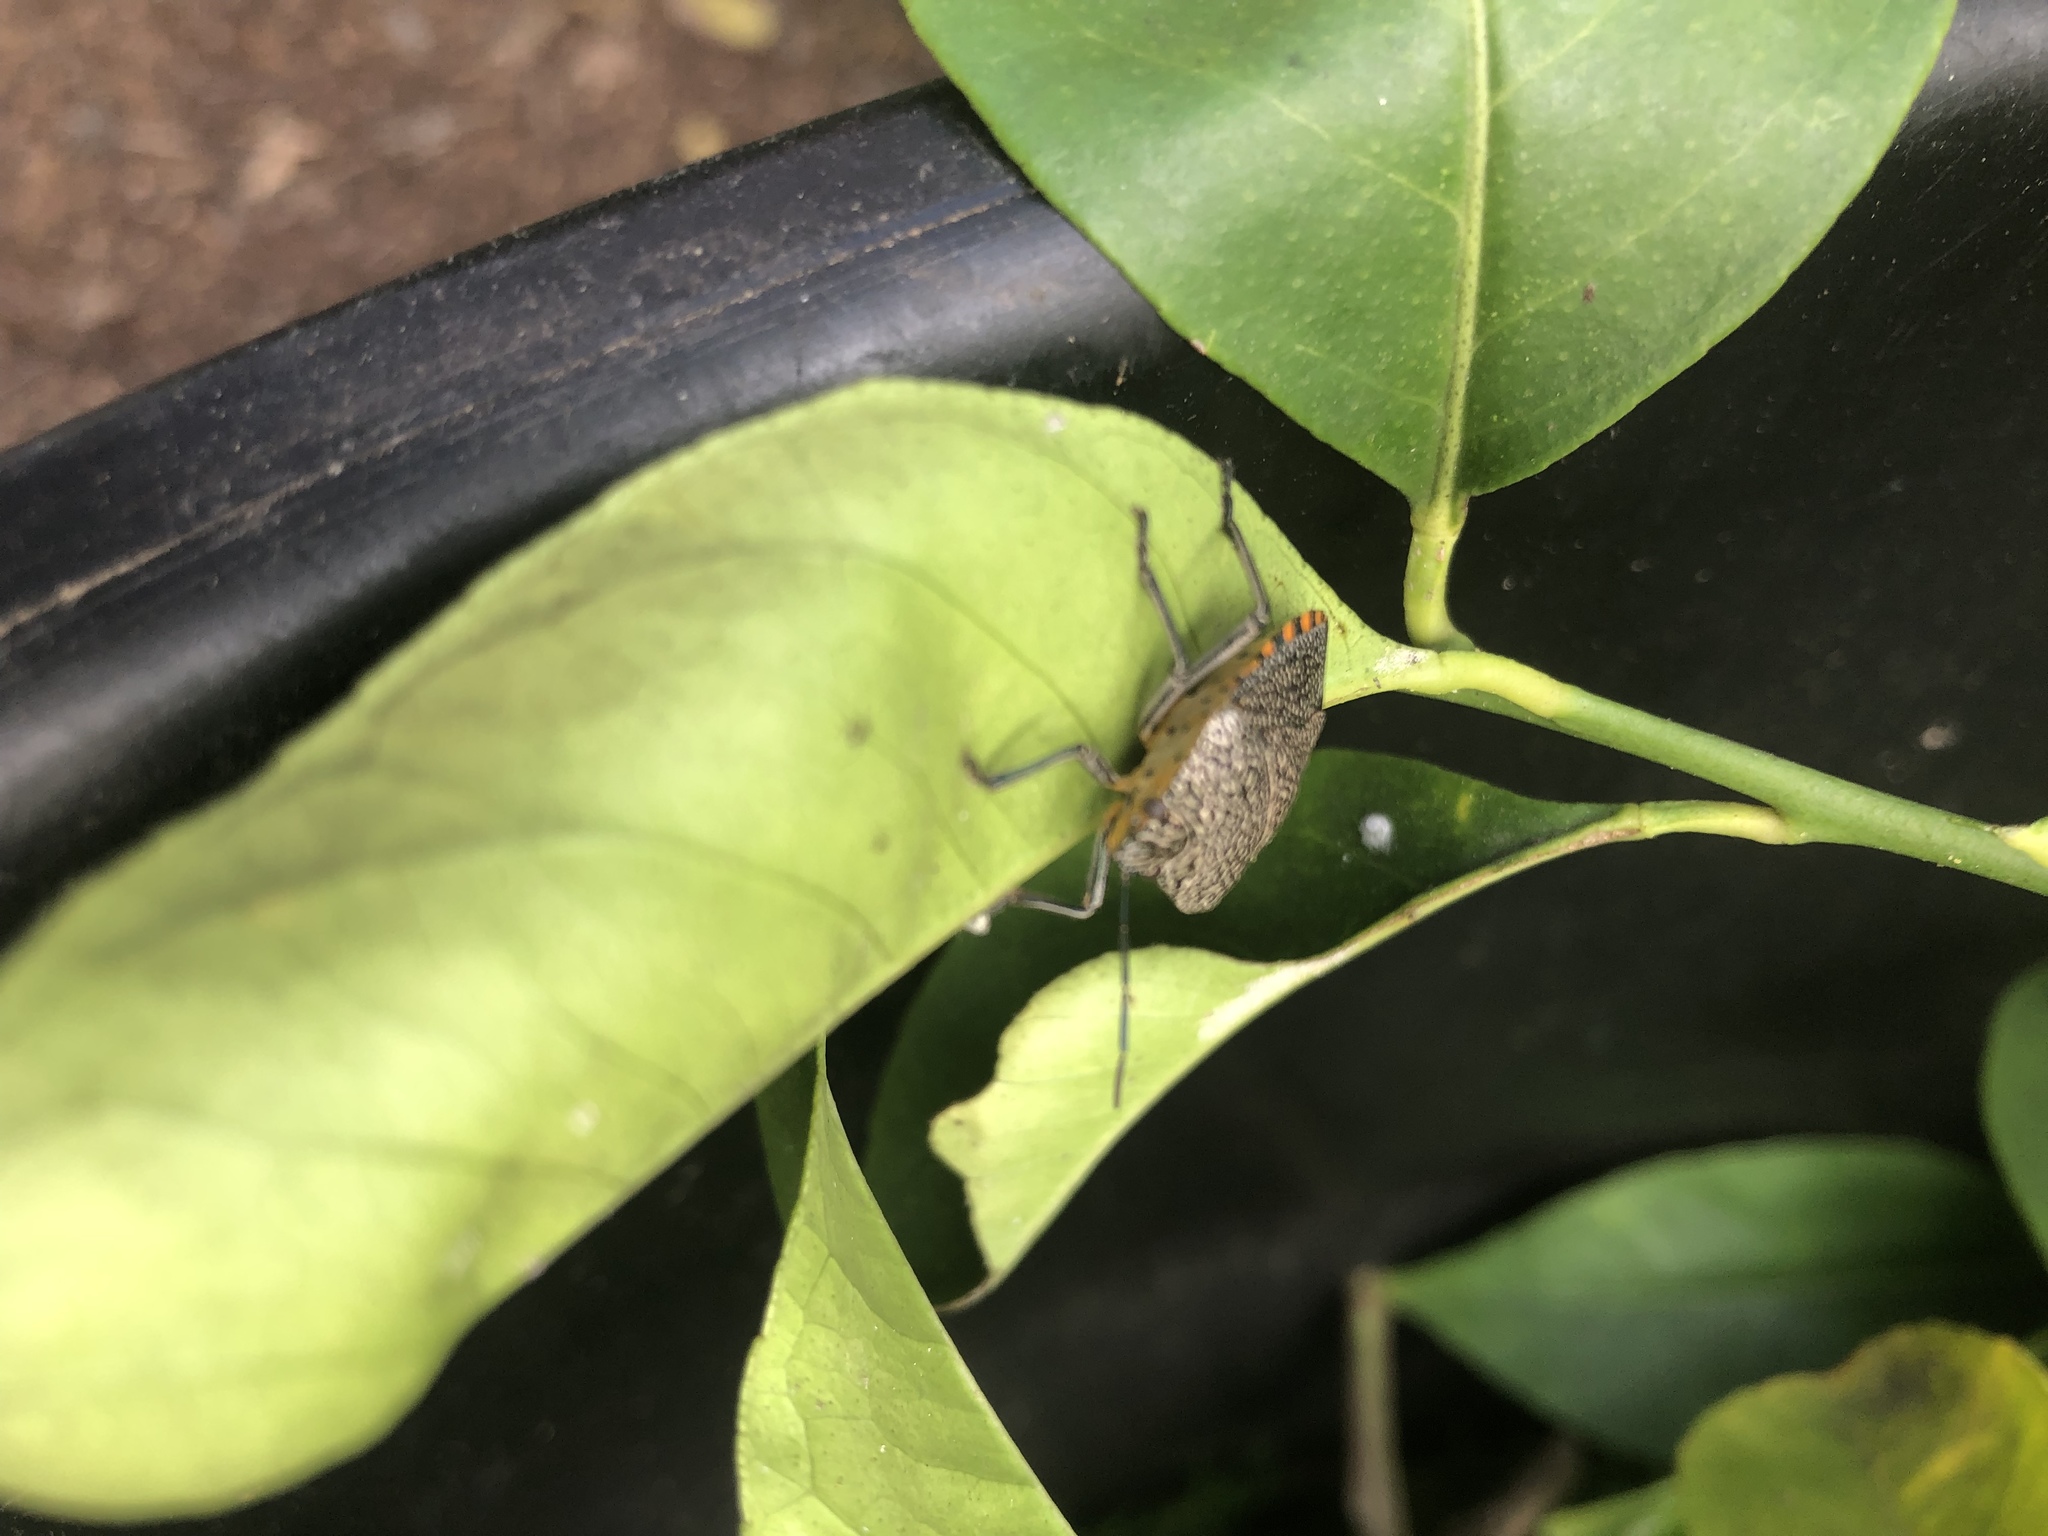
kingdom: Animalia
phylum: Arthropoda
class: Insecta
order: Hemiptera
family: Pentatomidae
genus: Pellaea
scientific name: Pellaea stictica
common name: Stink bug
